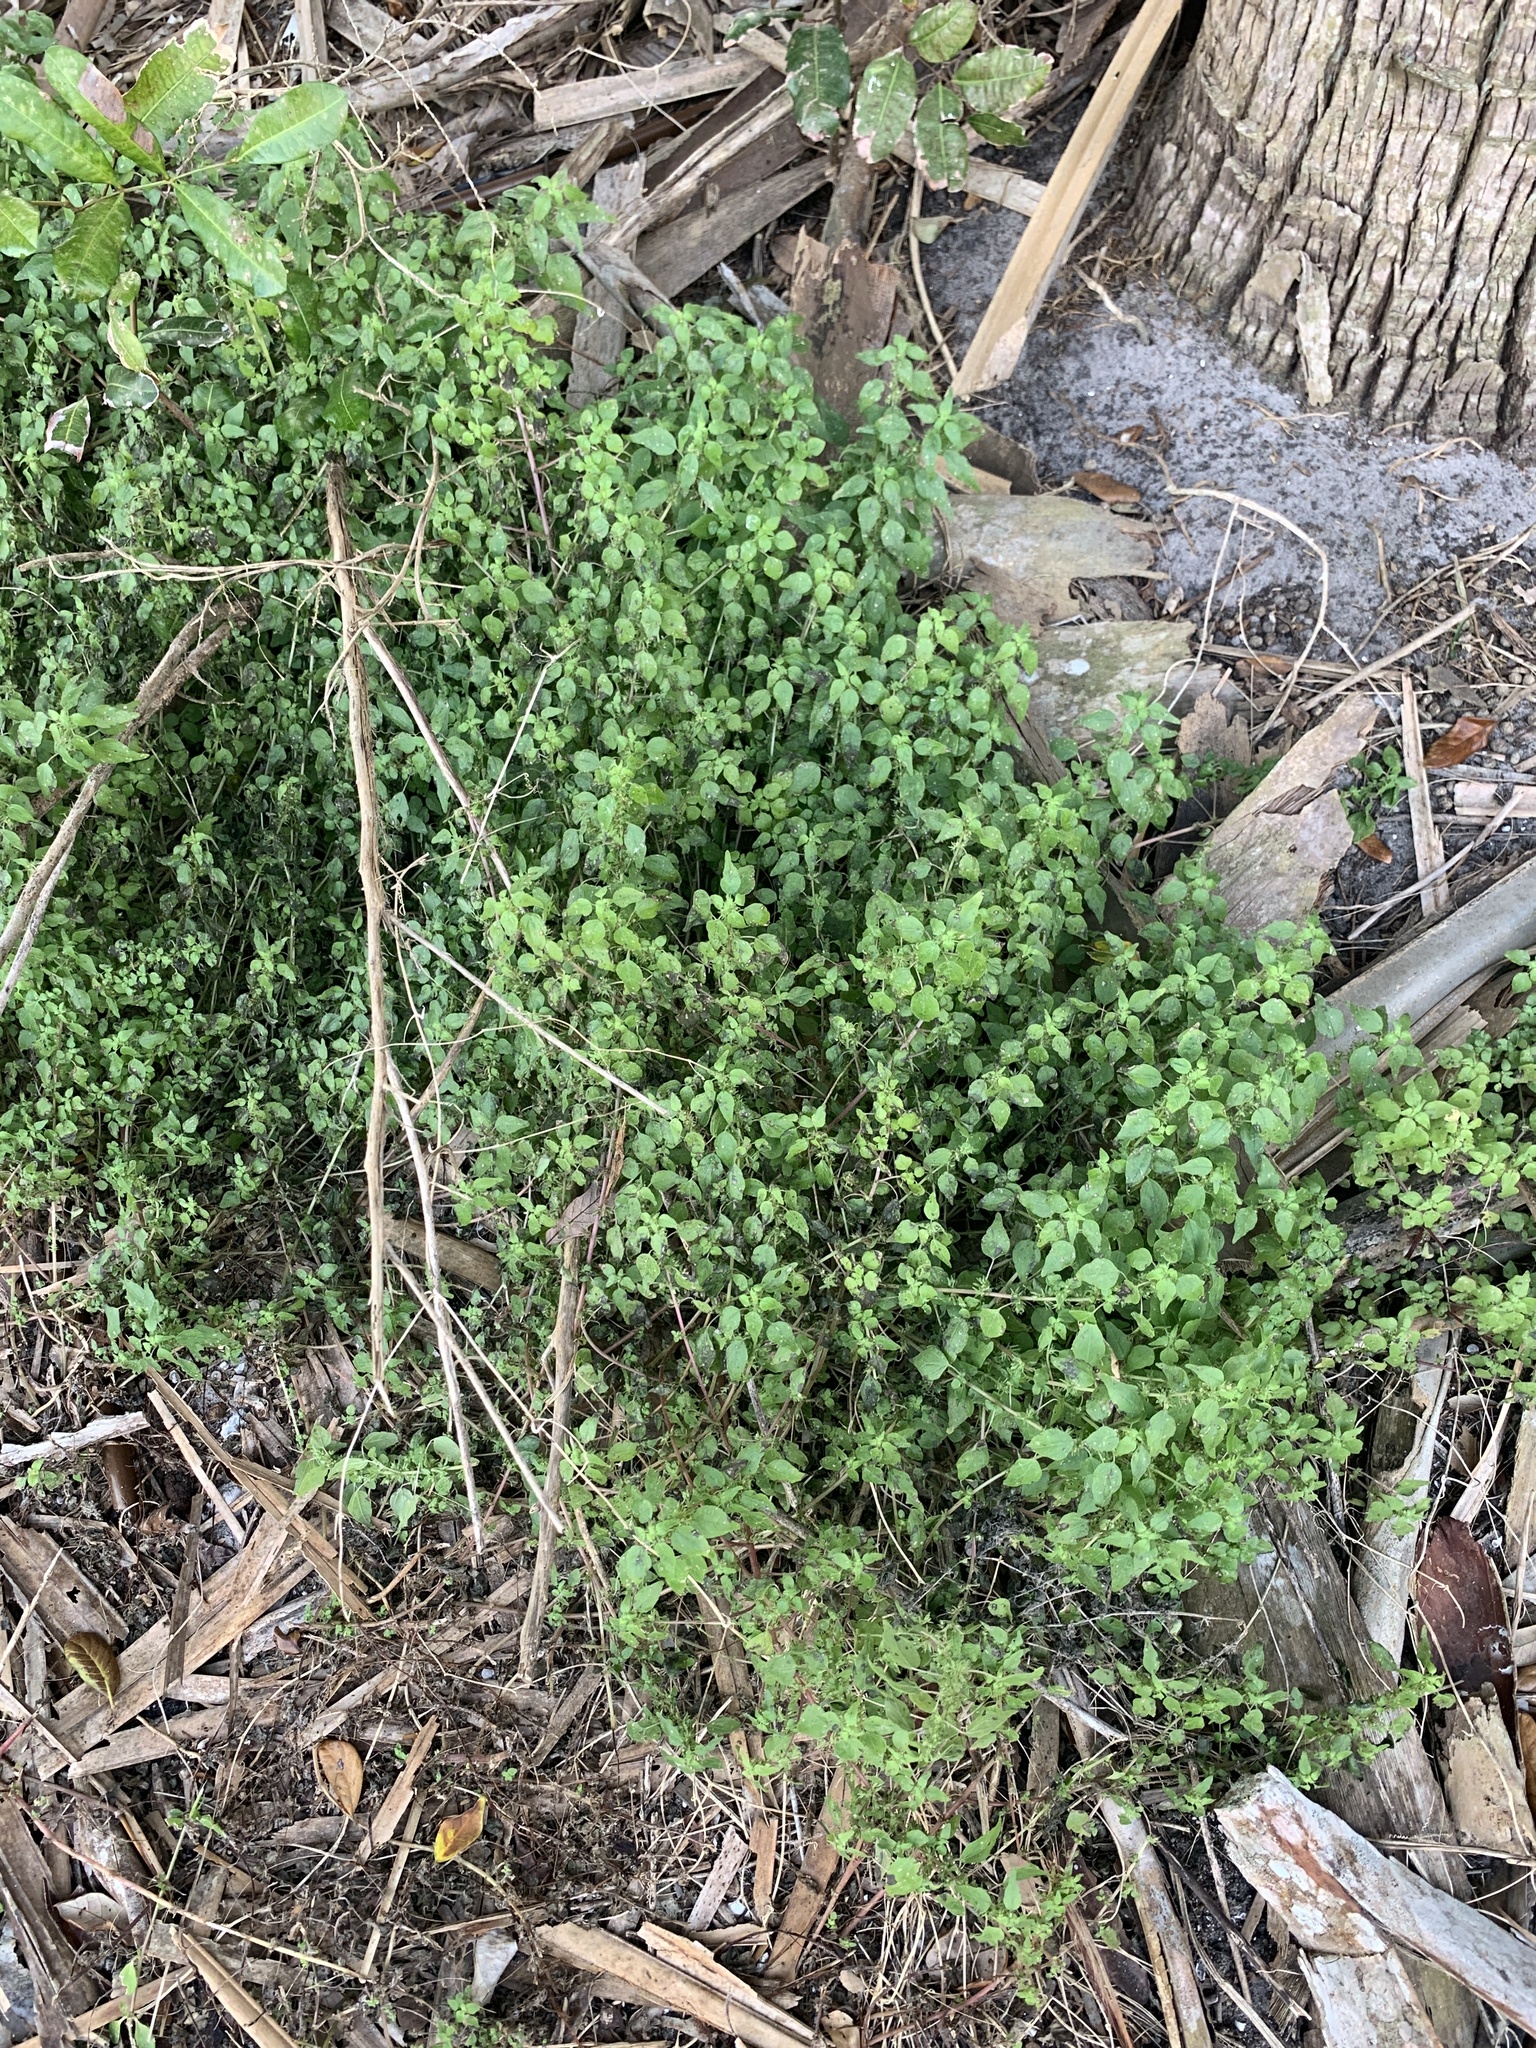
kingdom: Plantae
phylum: Tracheophyta
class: Magnoliopsida
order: Rosales
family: Urticaceae
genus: Parietaria
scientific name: Parietaria floridana
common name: Florida pellitory
